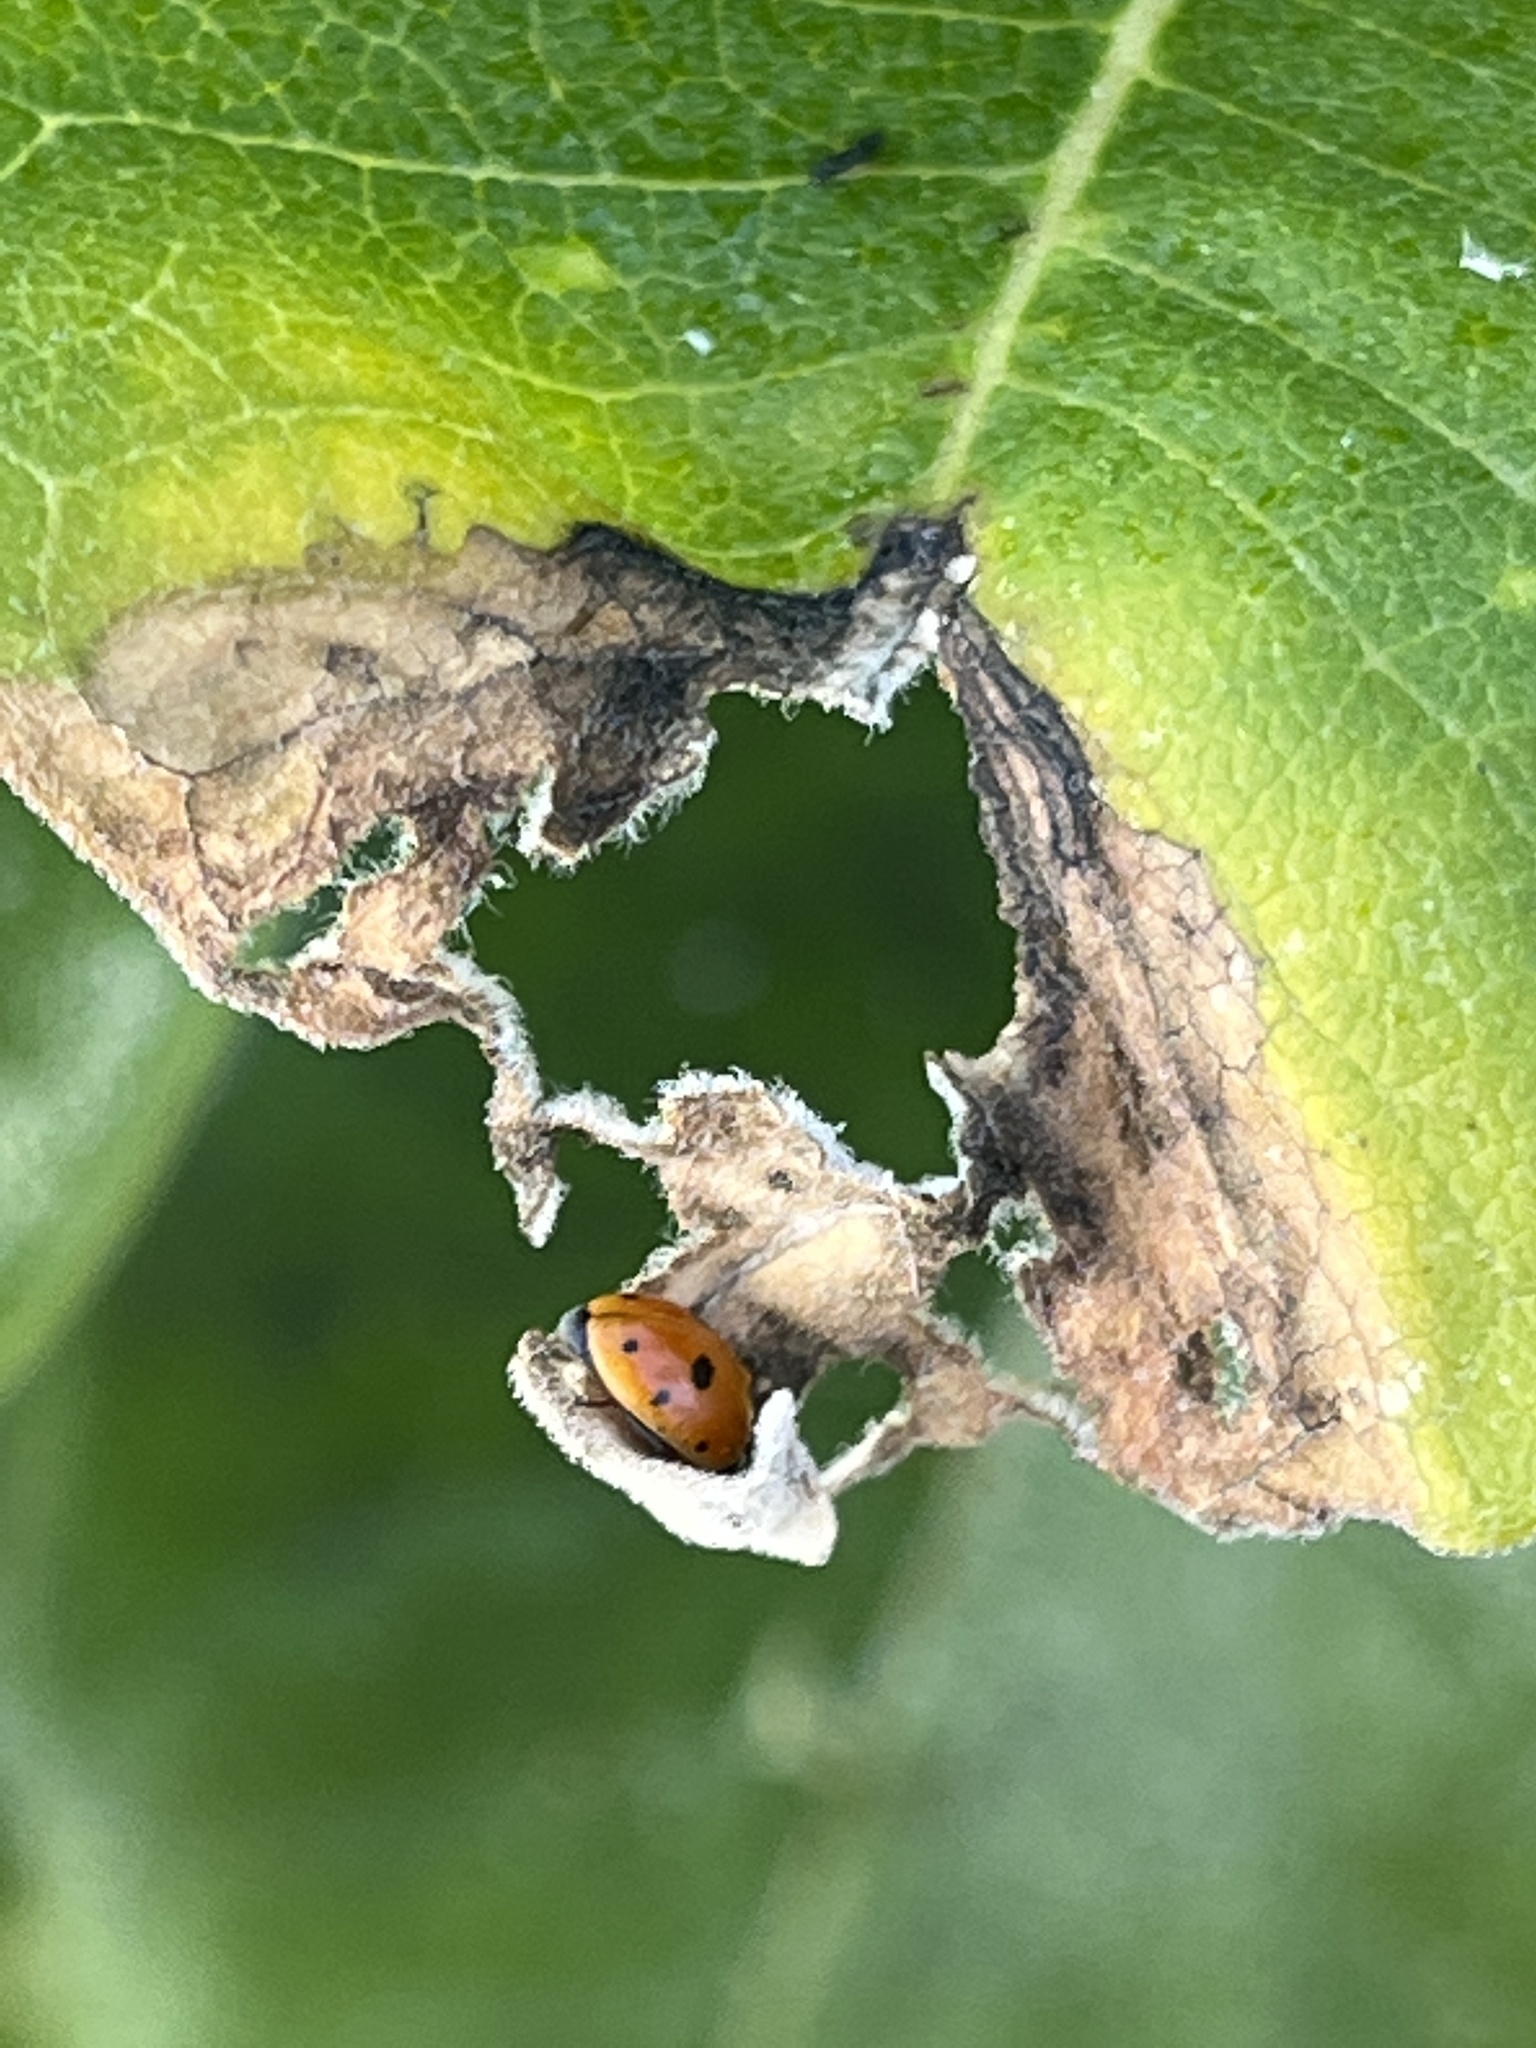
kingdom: Animalia
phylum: Arthropoda
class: Insecta
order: Coleoptera
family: Coccinellidae
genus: Hippodamia
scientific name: Hippodamia
